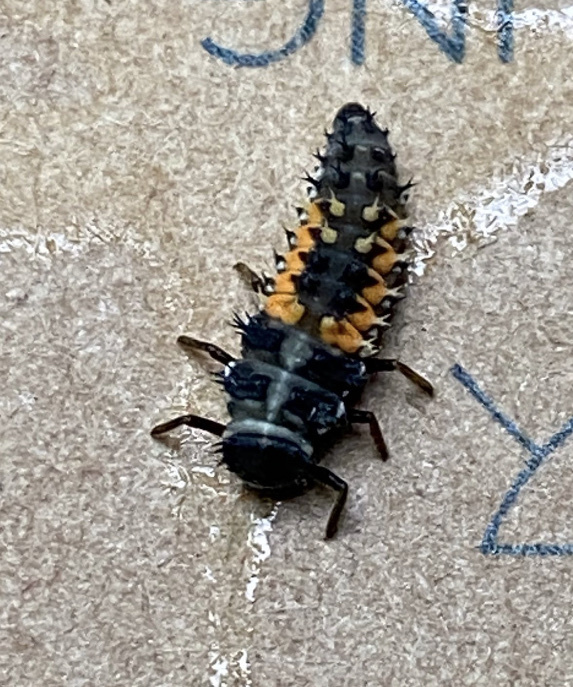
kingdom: Animalia
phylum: Arthropoda
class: Insecta
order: Coleoptera
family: Coccinellidae
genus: Harmonia
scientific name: Harmonia axyridis
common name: Harlequin ladybird
